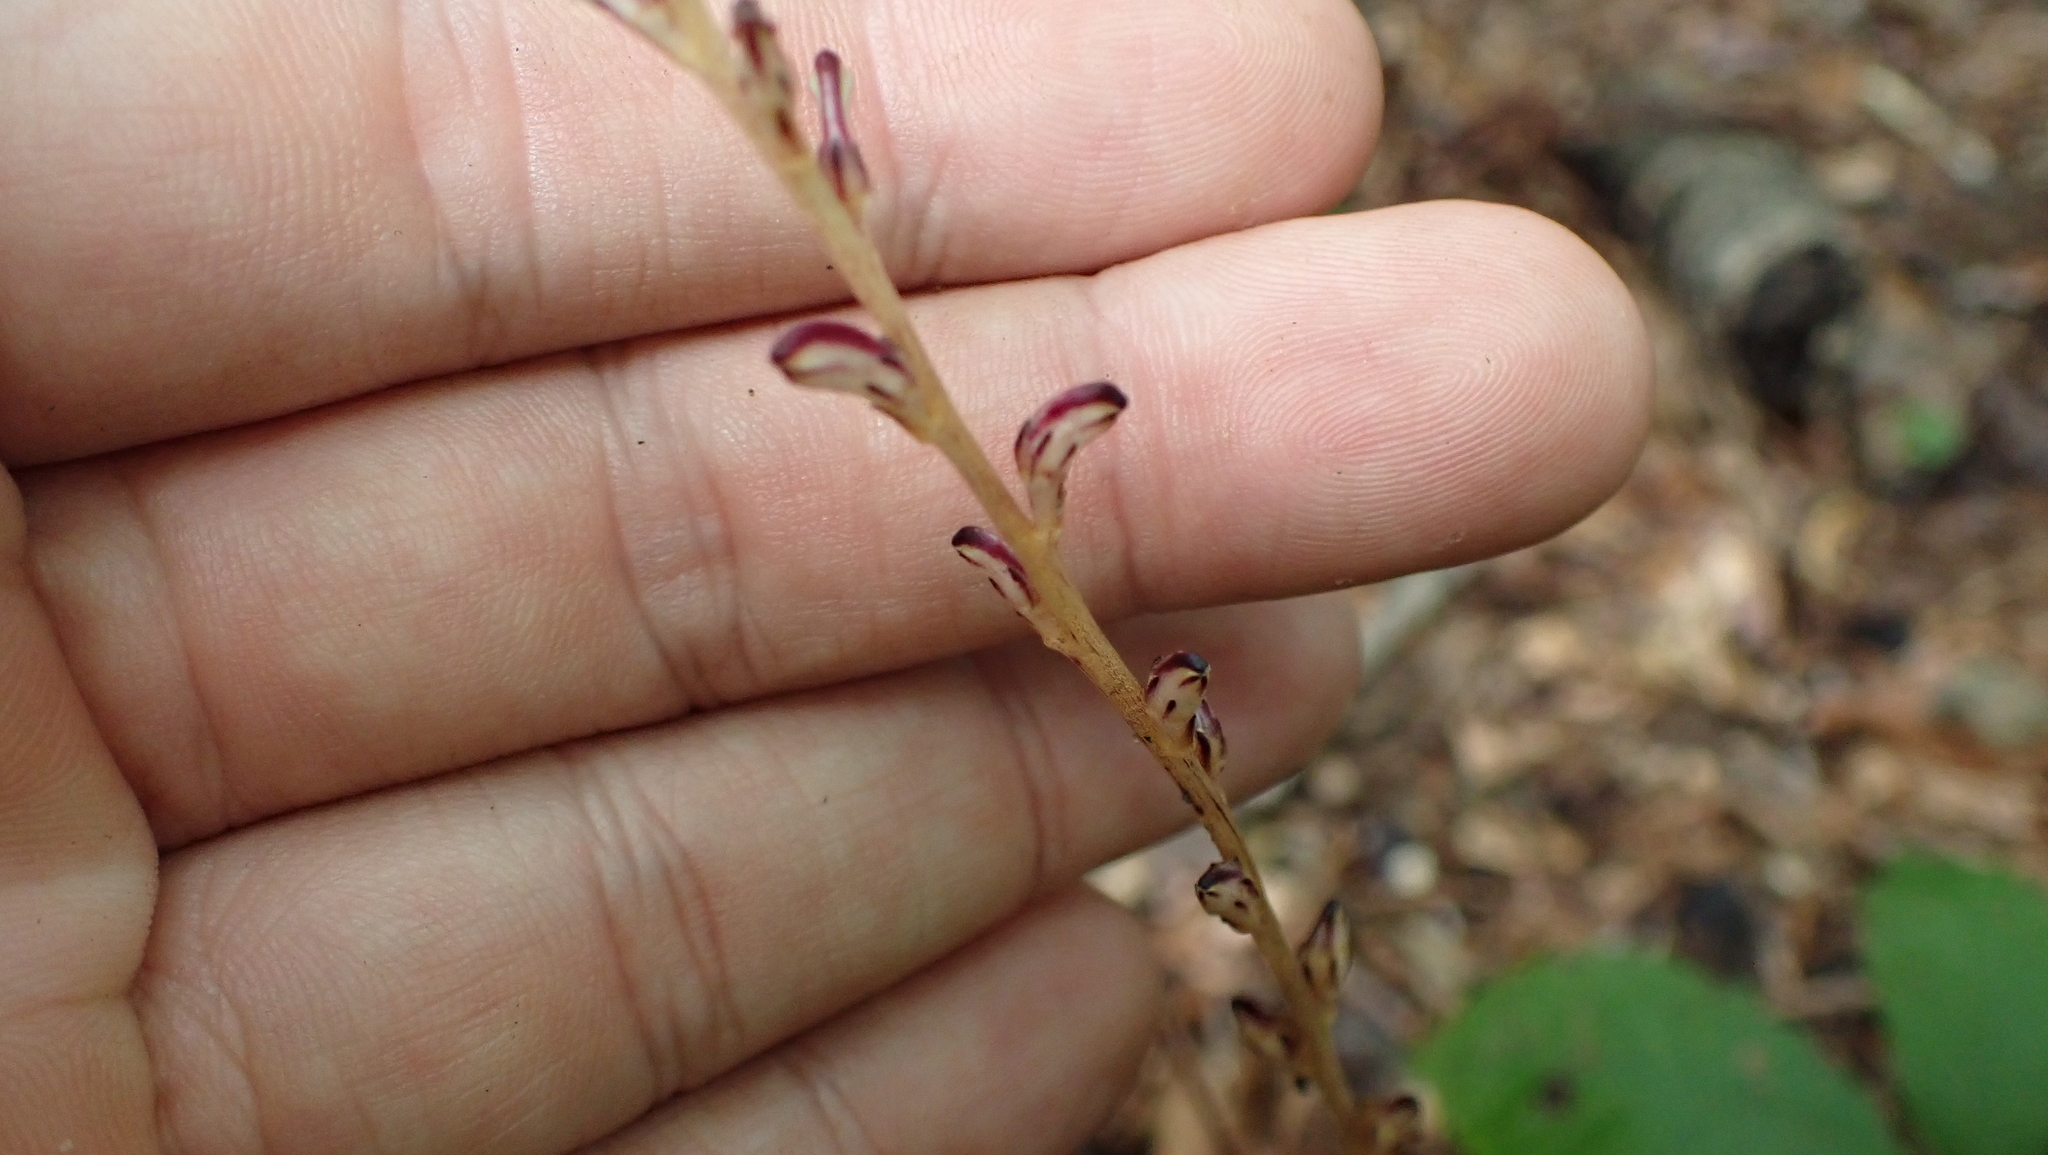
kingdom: Plantae
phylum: Tracheophyta
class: Magnoliopsida
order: Lamiales
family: Orobanchaceae
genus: Epifagus
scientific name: Epifagus virginiana
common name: Beechdrops
